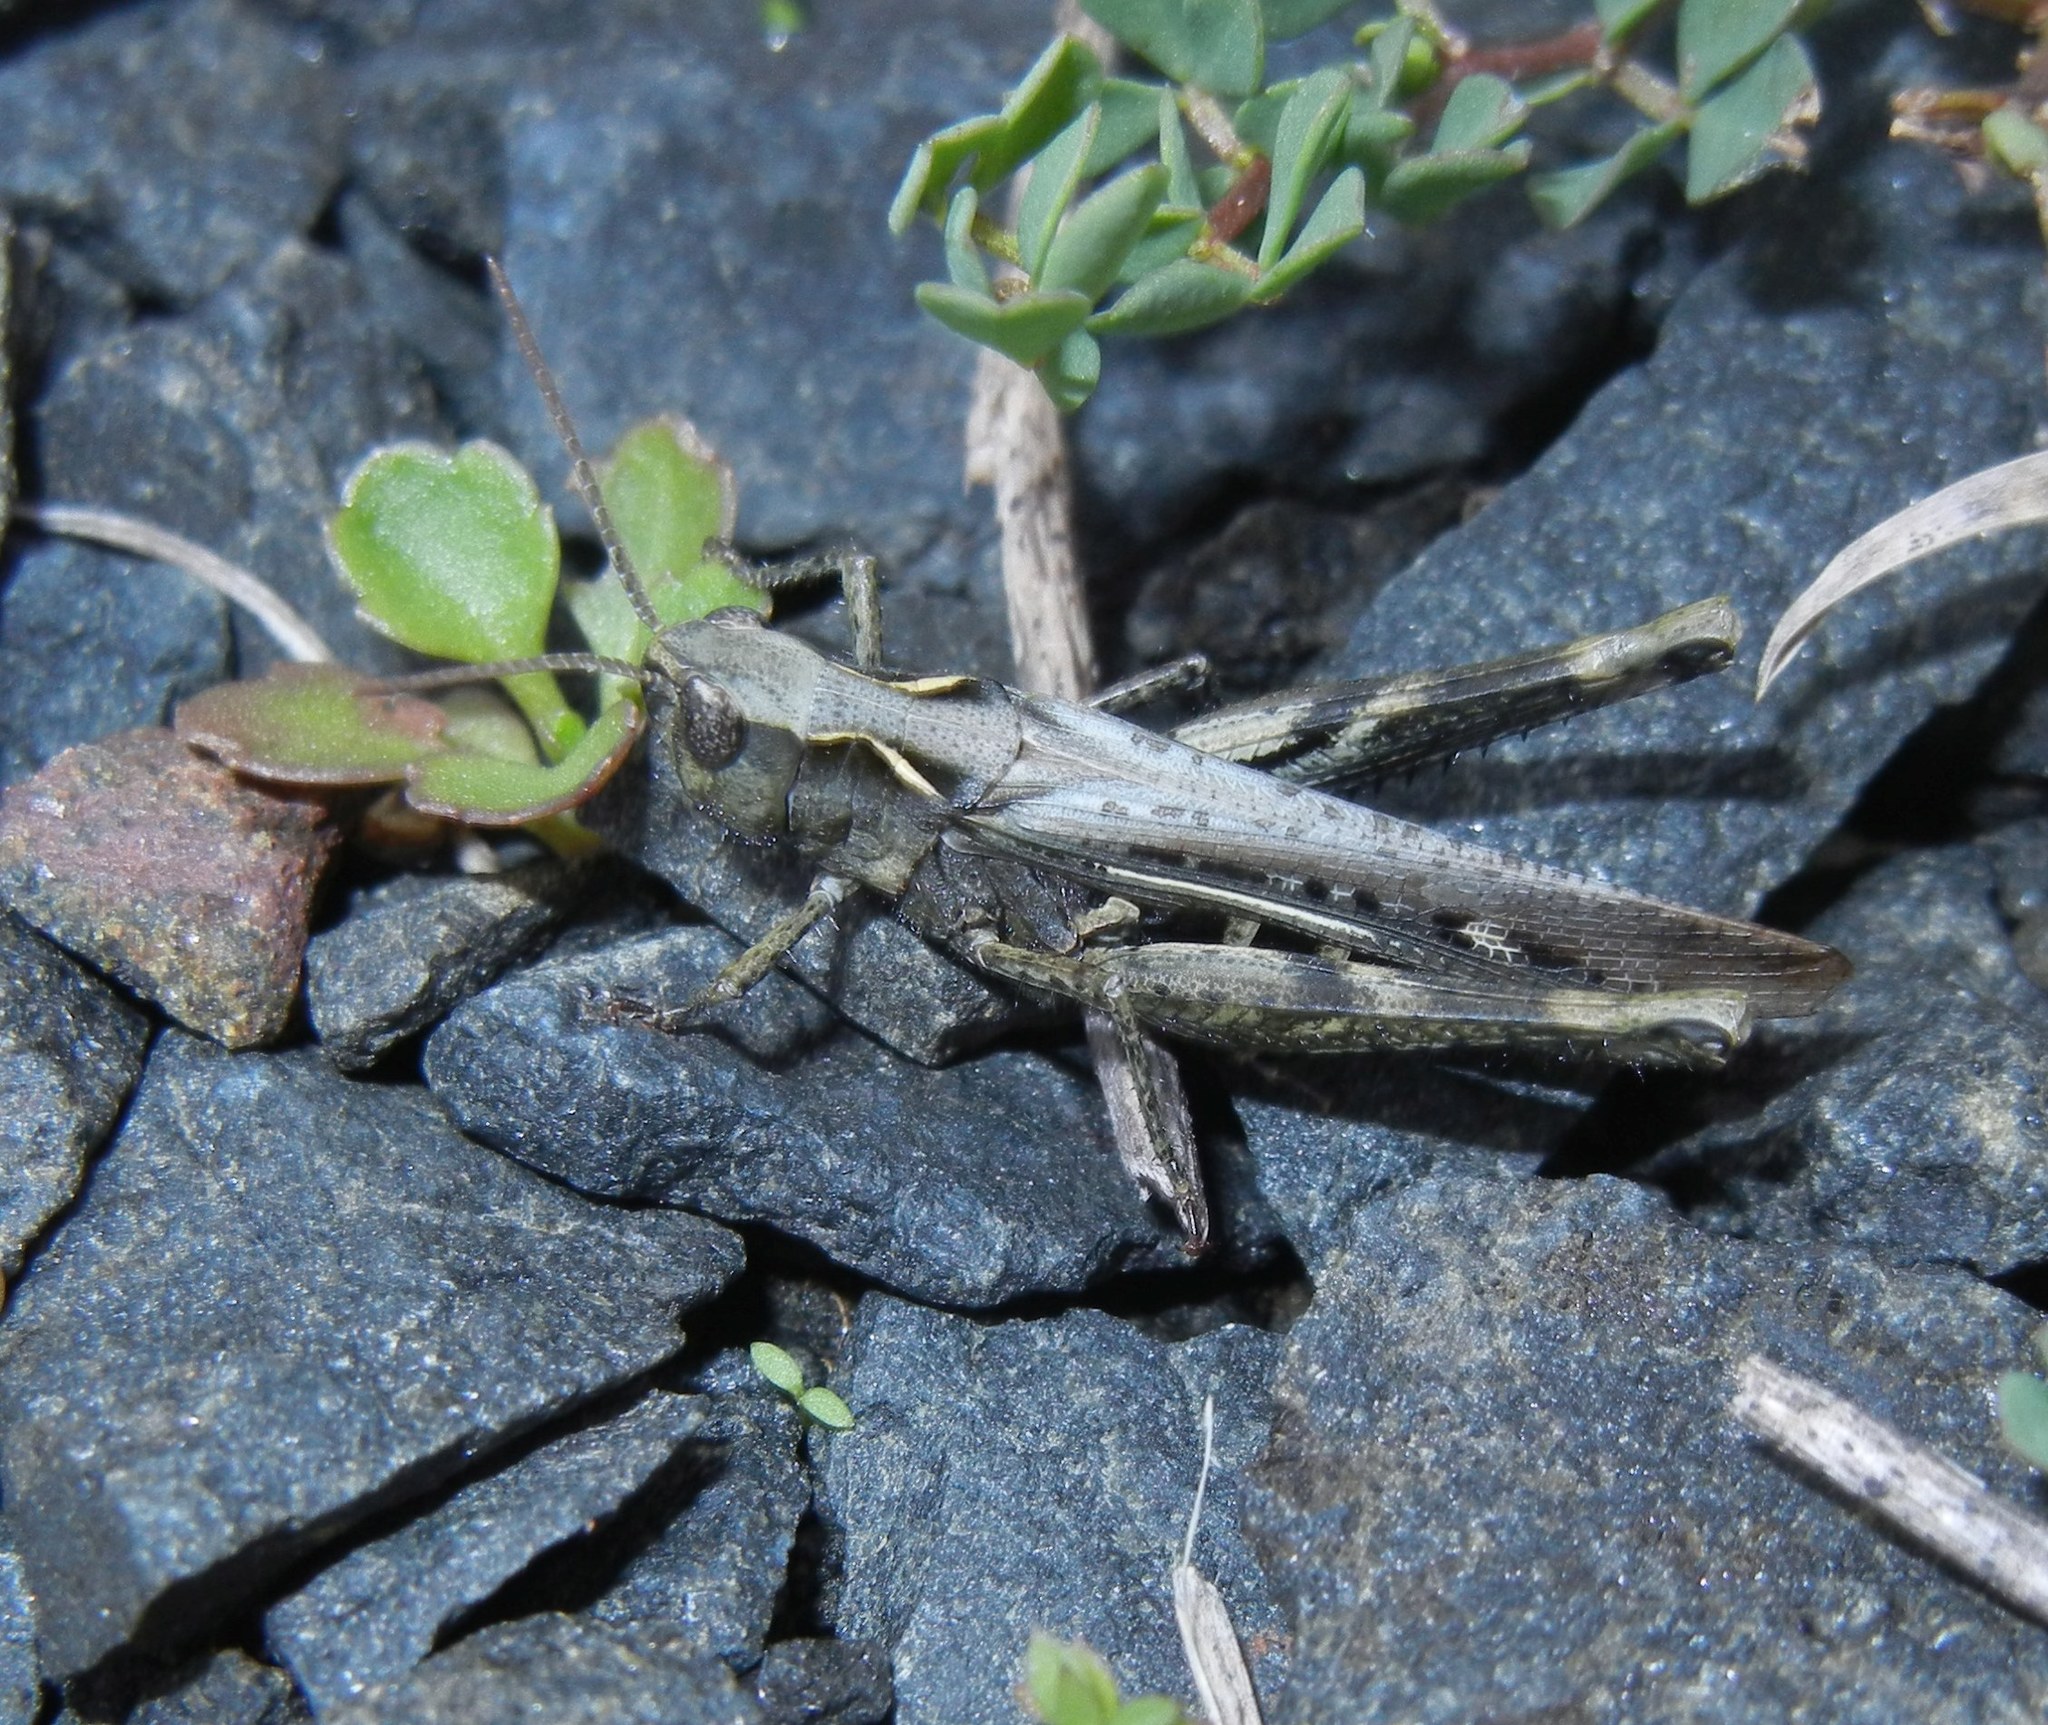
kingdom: Animalia
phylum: Arthropoda
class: Insecta
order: Orthoptera
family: Acrididae
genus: Chorthippus
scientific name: Chorthippus brunneus
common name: Field grasshopper
